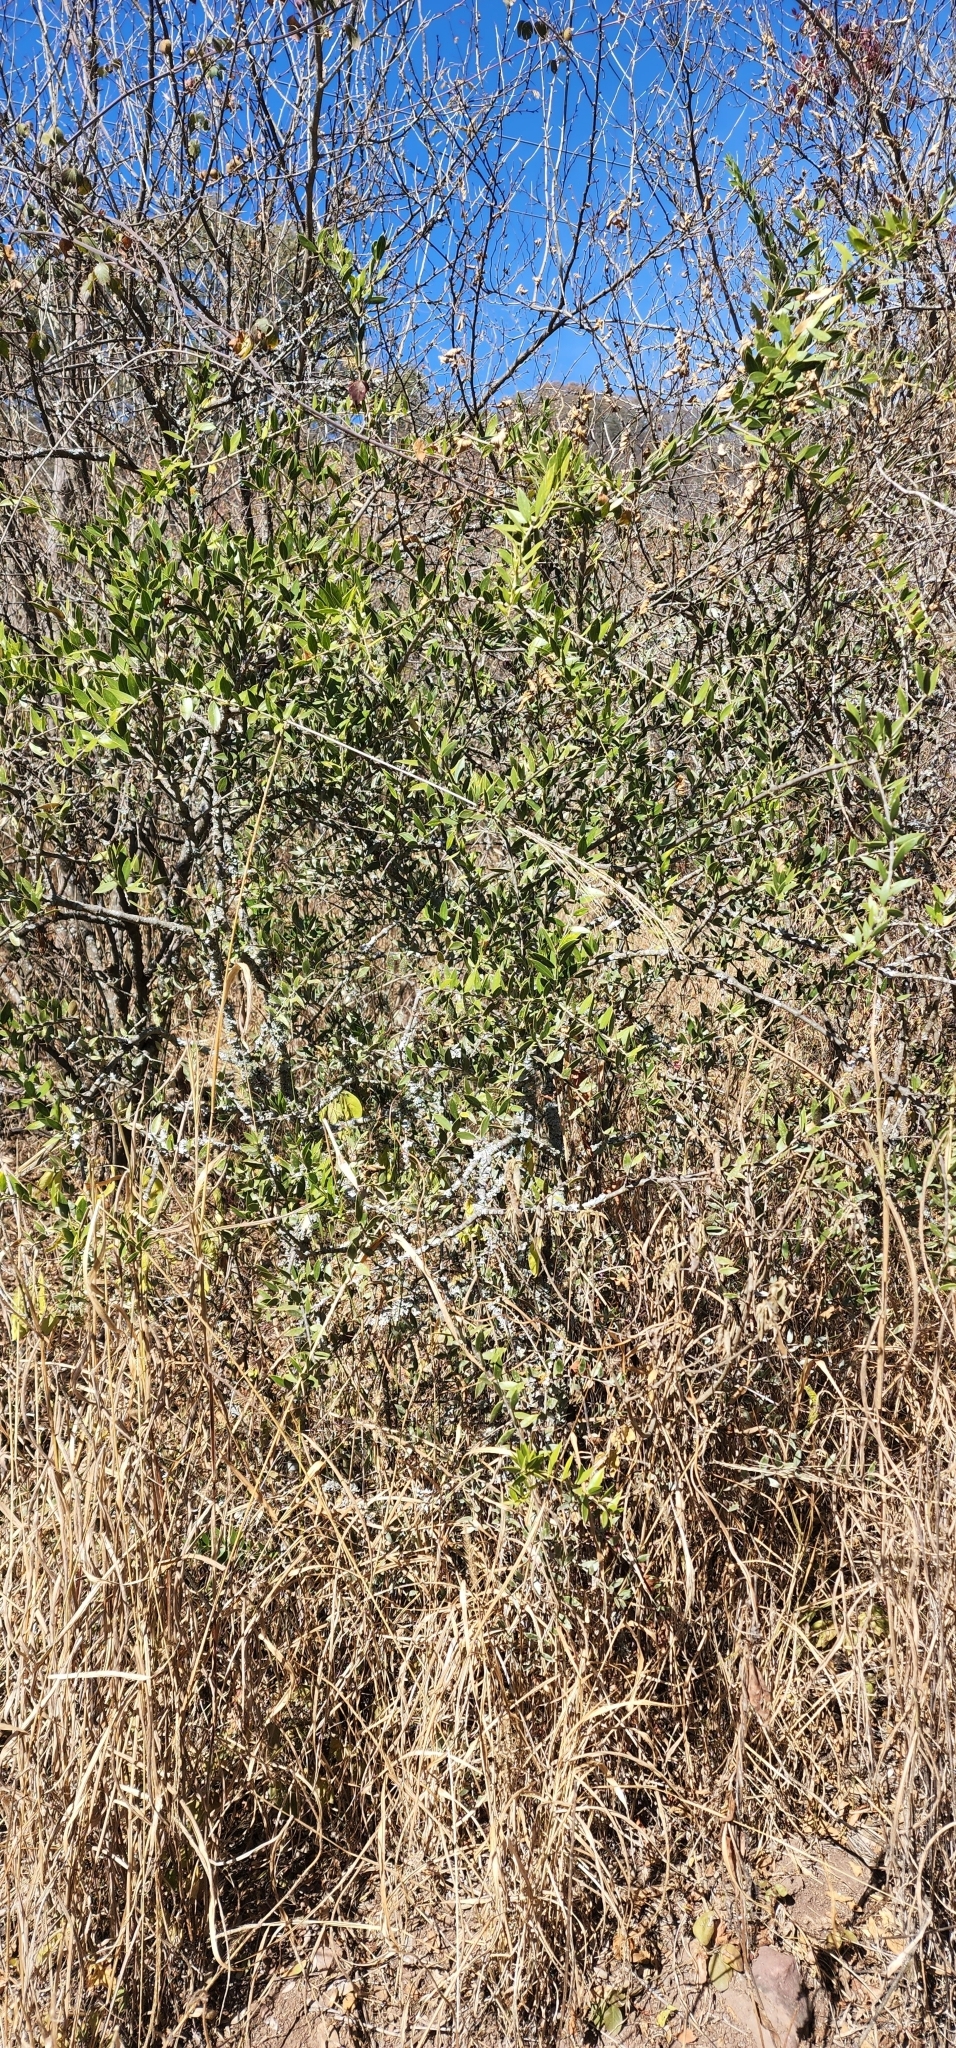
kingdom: Plantae
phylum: Tracheophyta
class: Magnoliopsida
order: Gentianales
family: Apocynaceae
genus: Aspidosperma
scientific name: Aspidosperma quebracho-blanco
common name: White quebracho
